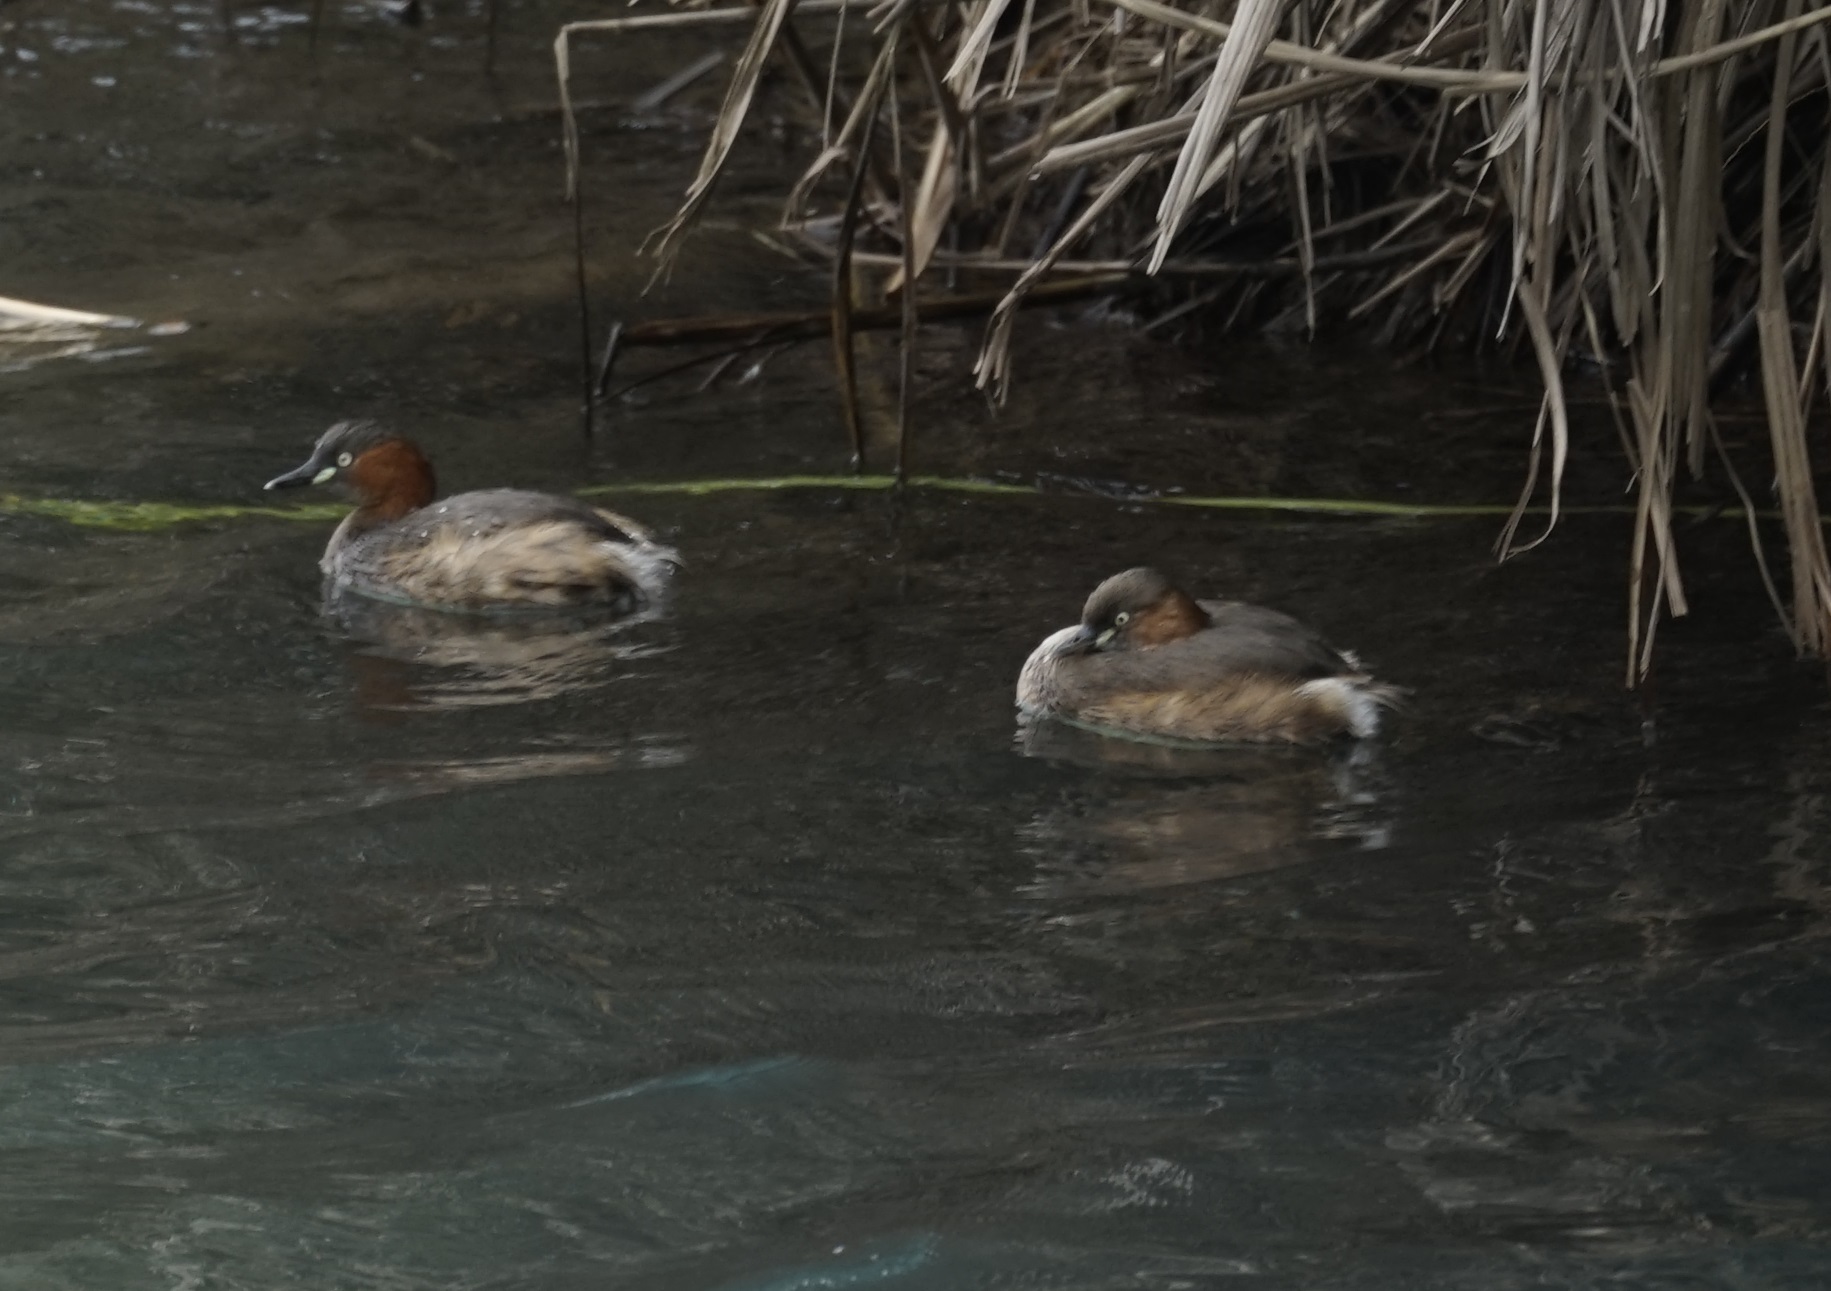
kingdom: Animalia
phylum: Chordata
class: Aves
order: Podicipediformes
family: Podicipedidae
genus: Tachybaptus
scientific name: Tachybaptus ruficollis
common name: Little grebe
